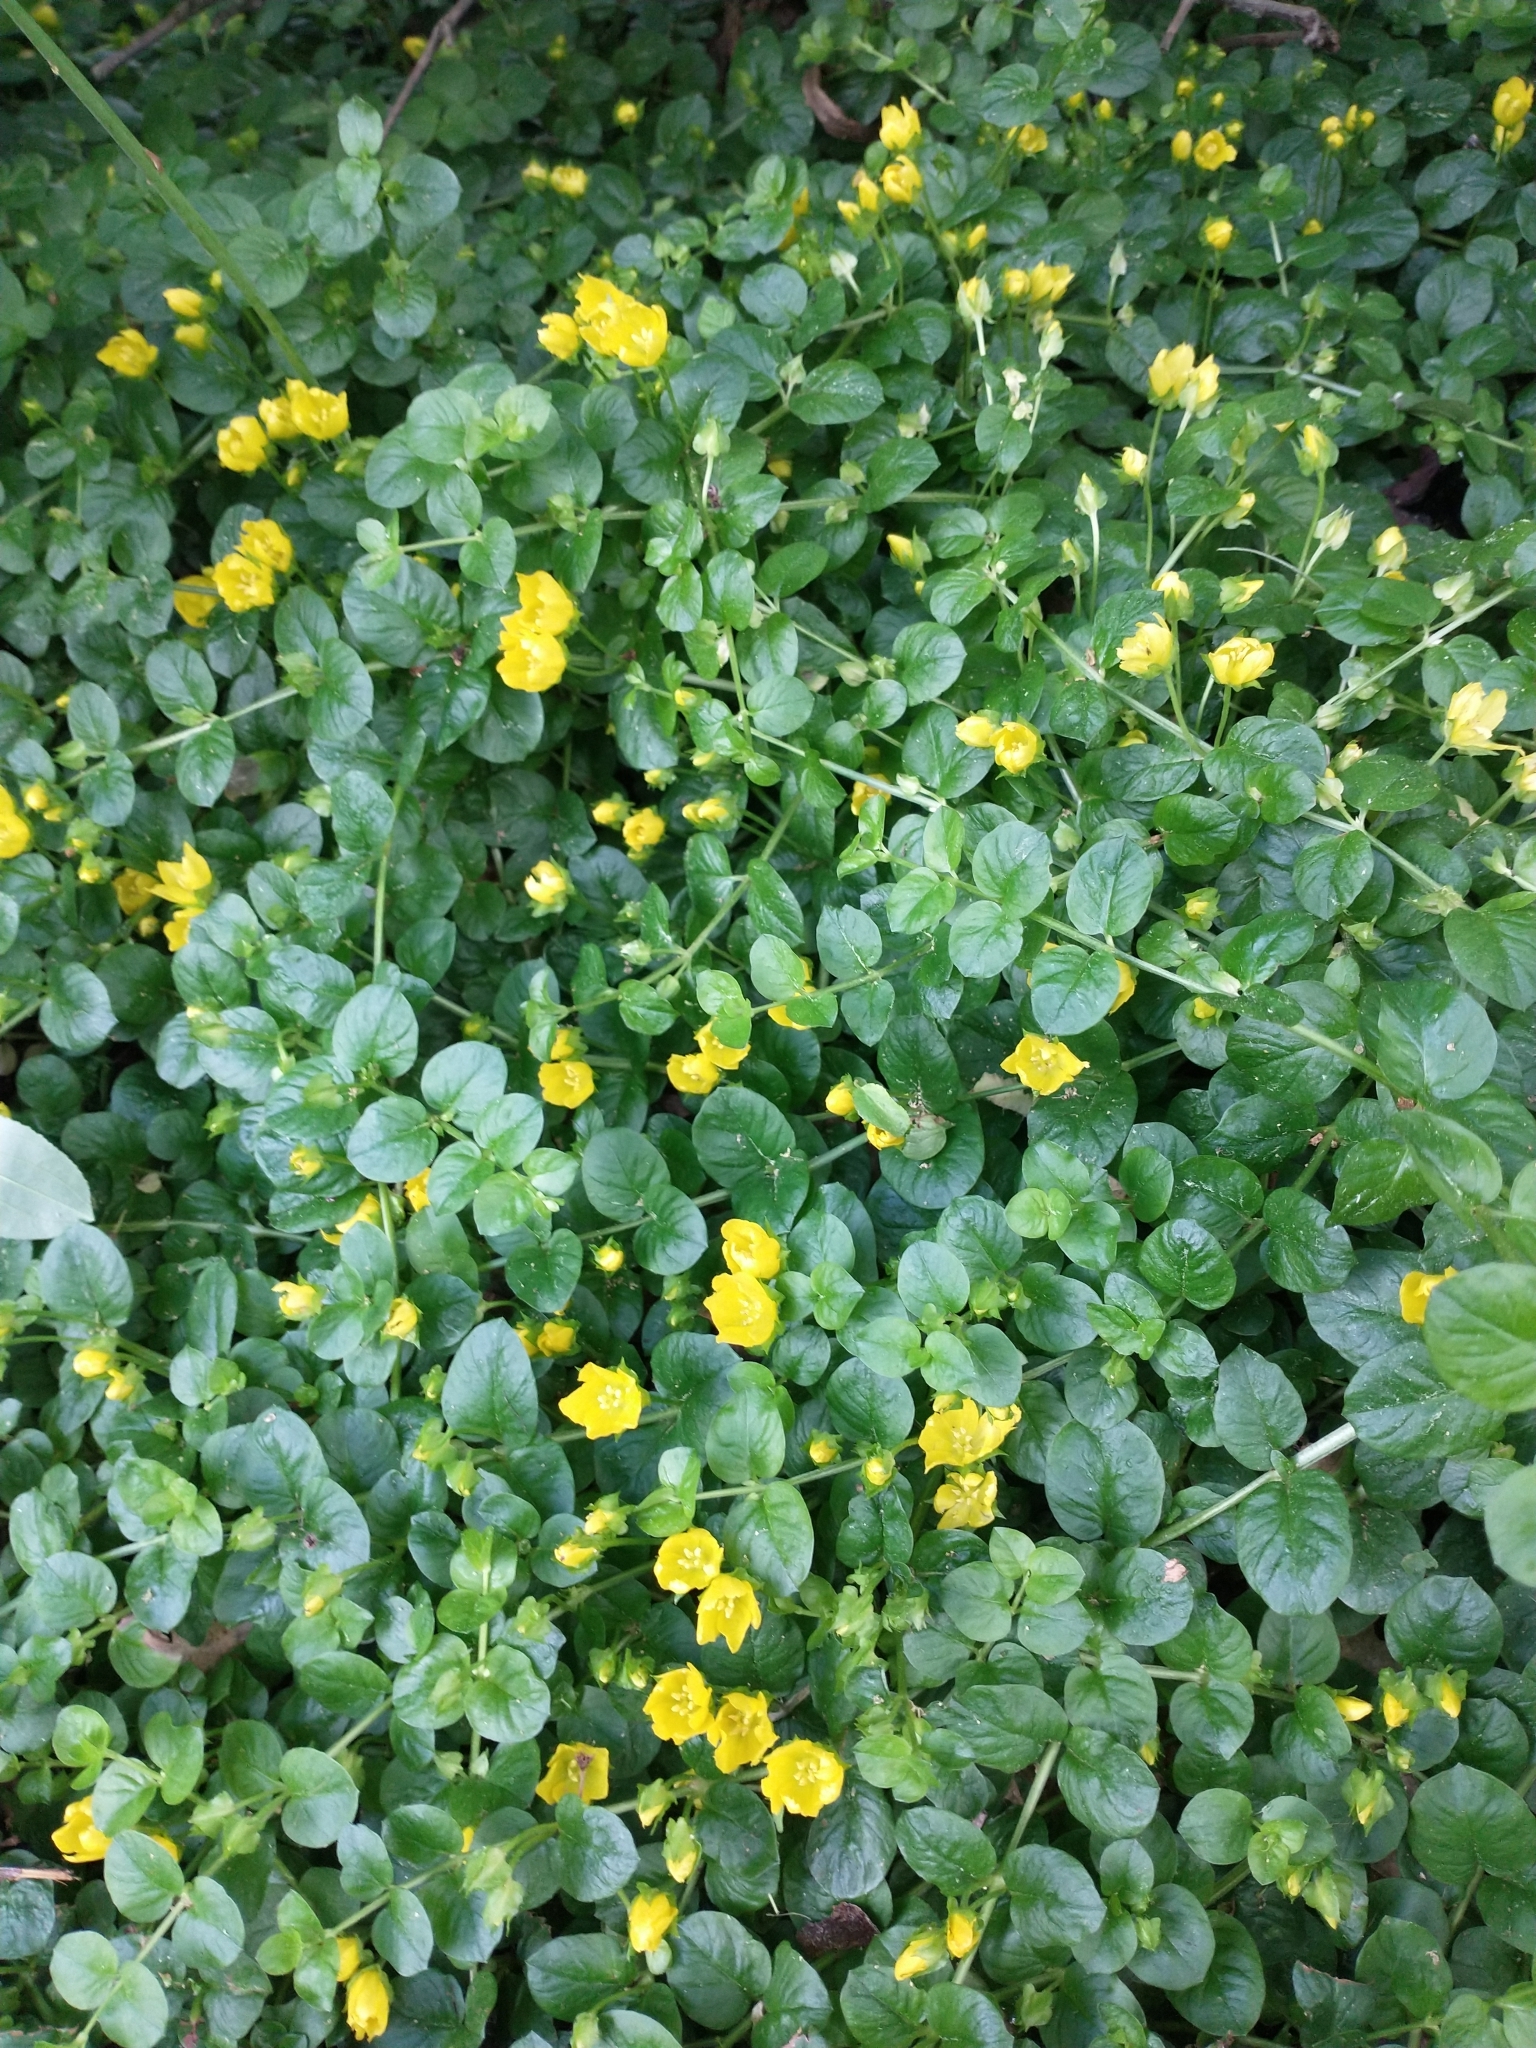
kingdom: Plantae
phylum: Tracheophyta
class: Magnoliopsida
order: Ericales
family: Primulaceae
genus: Lysimachia
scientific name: Lysimachia nummularia
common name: Moneywort
